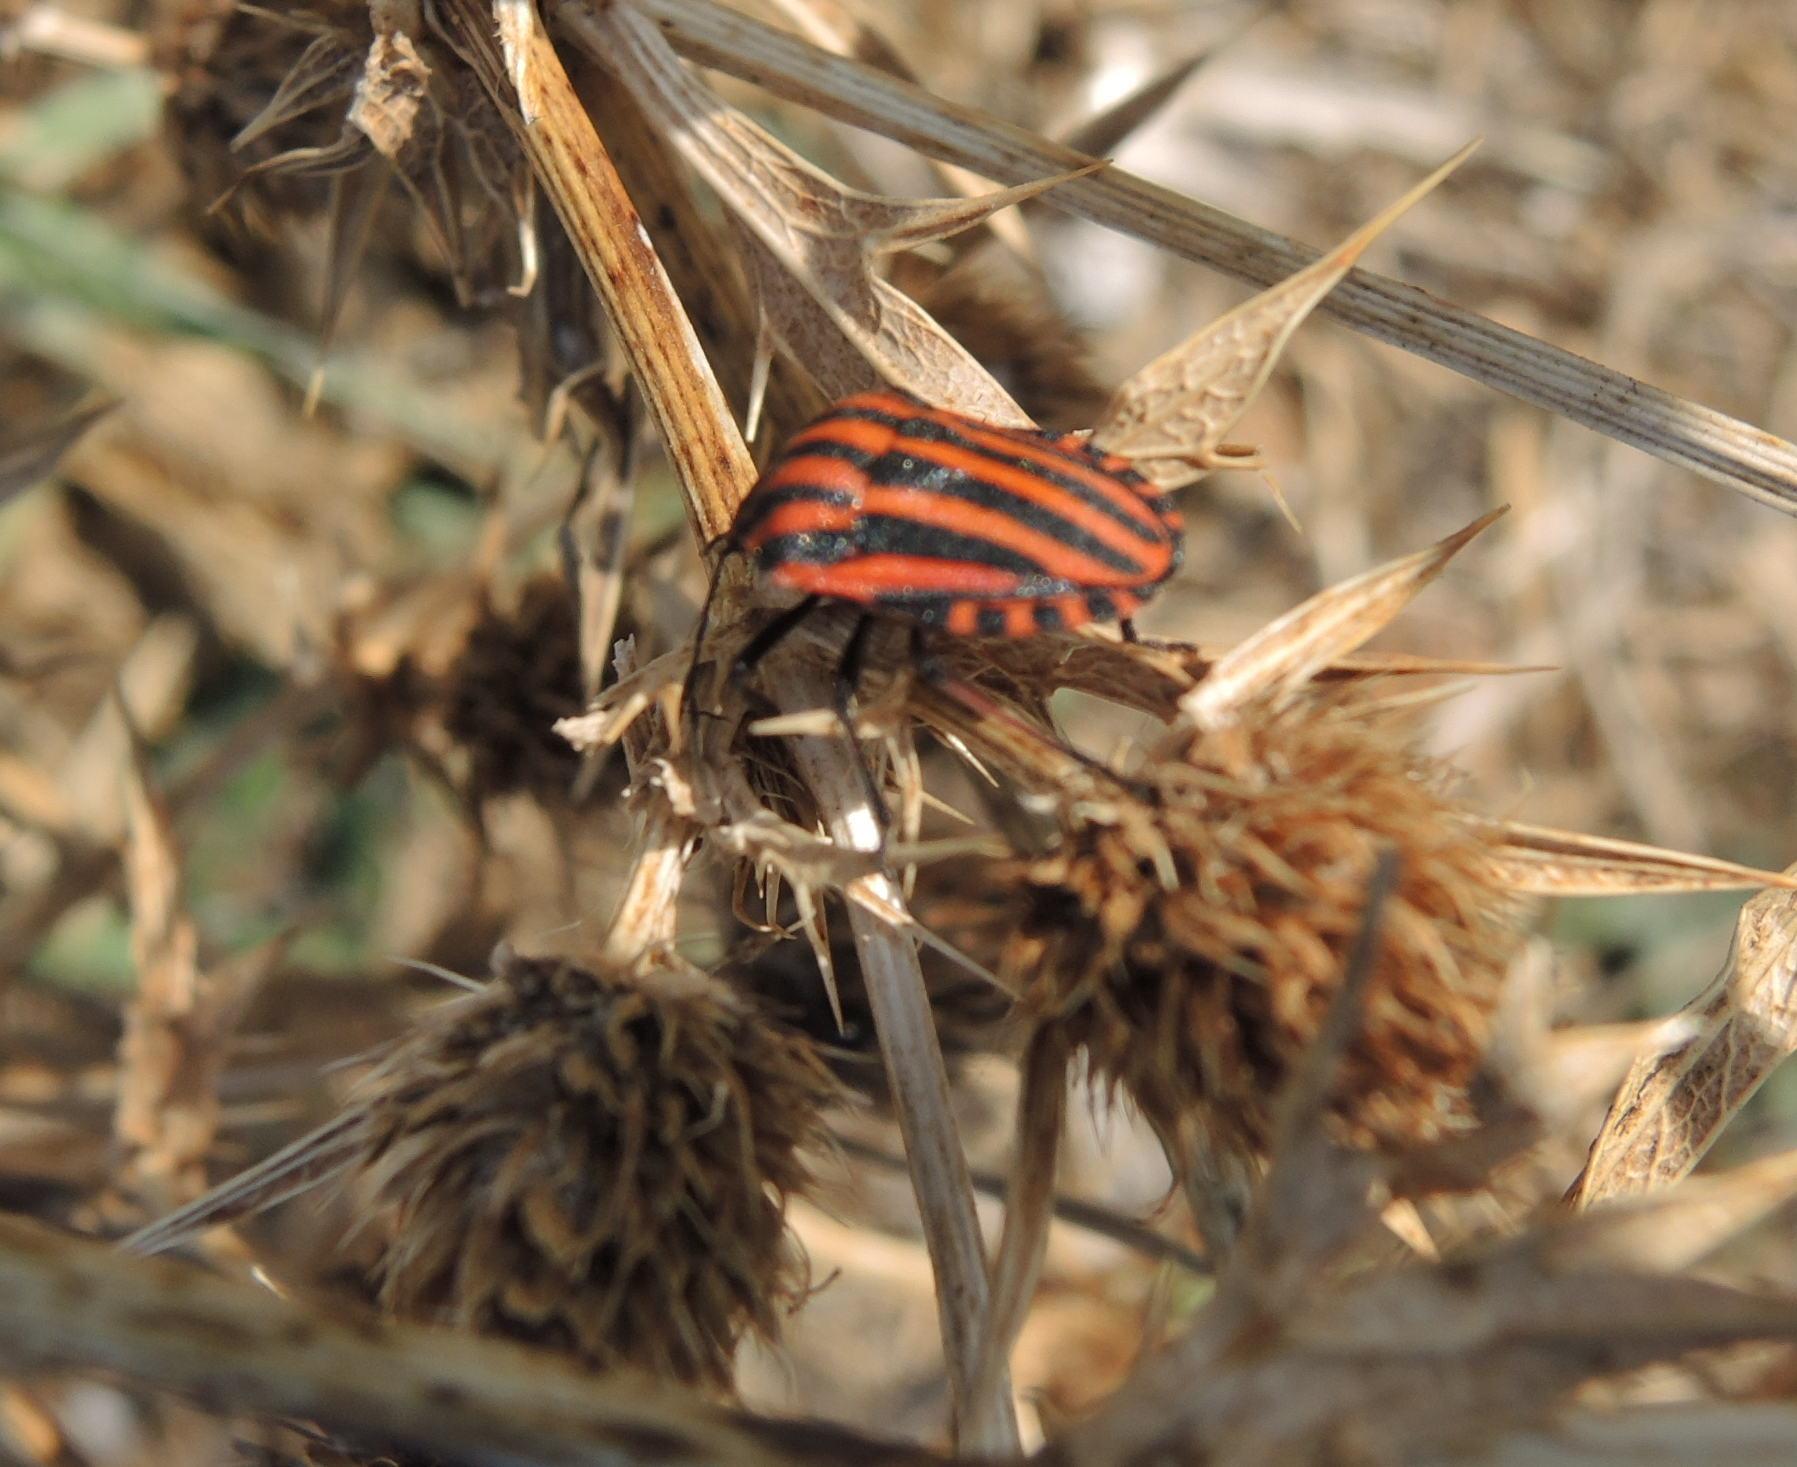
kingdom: Animalia
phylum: Arthropoda
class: Insecta
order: Hemiptera
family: Pentatomidae
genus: Graphosoma
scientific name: Graphosoma italicum
